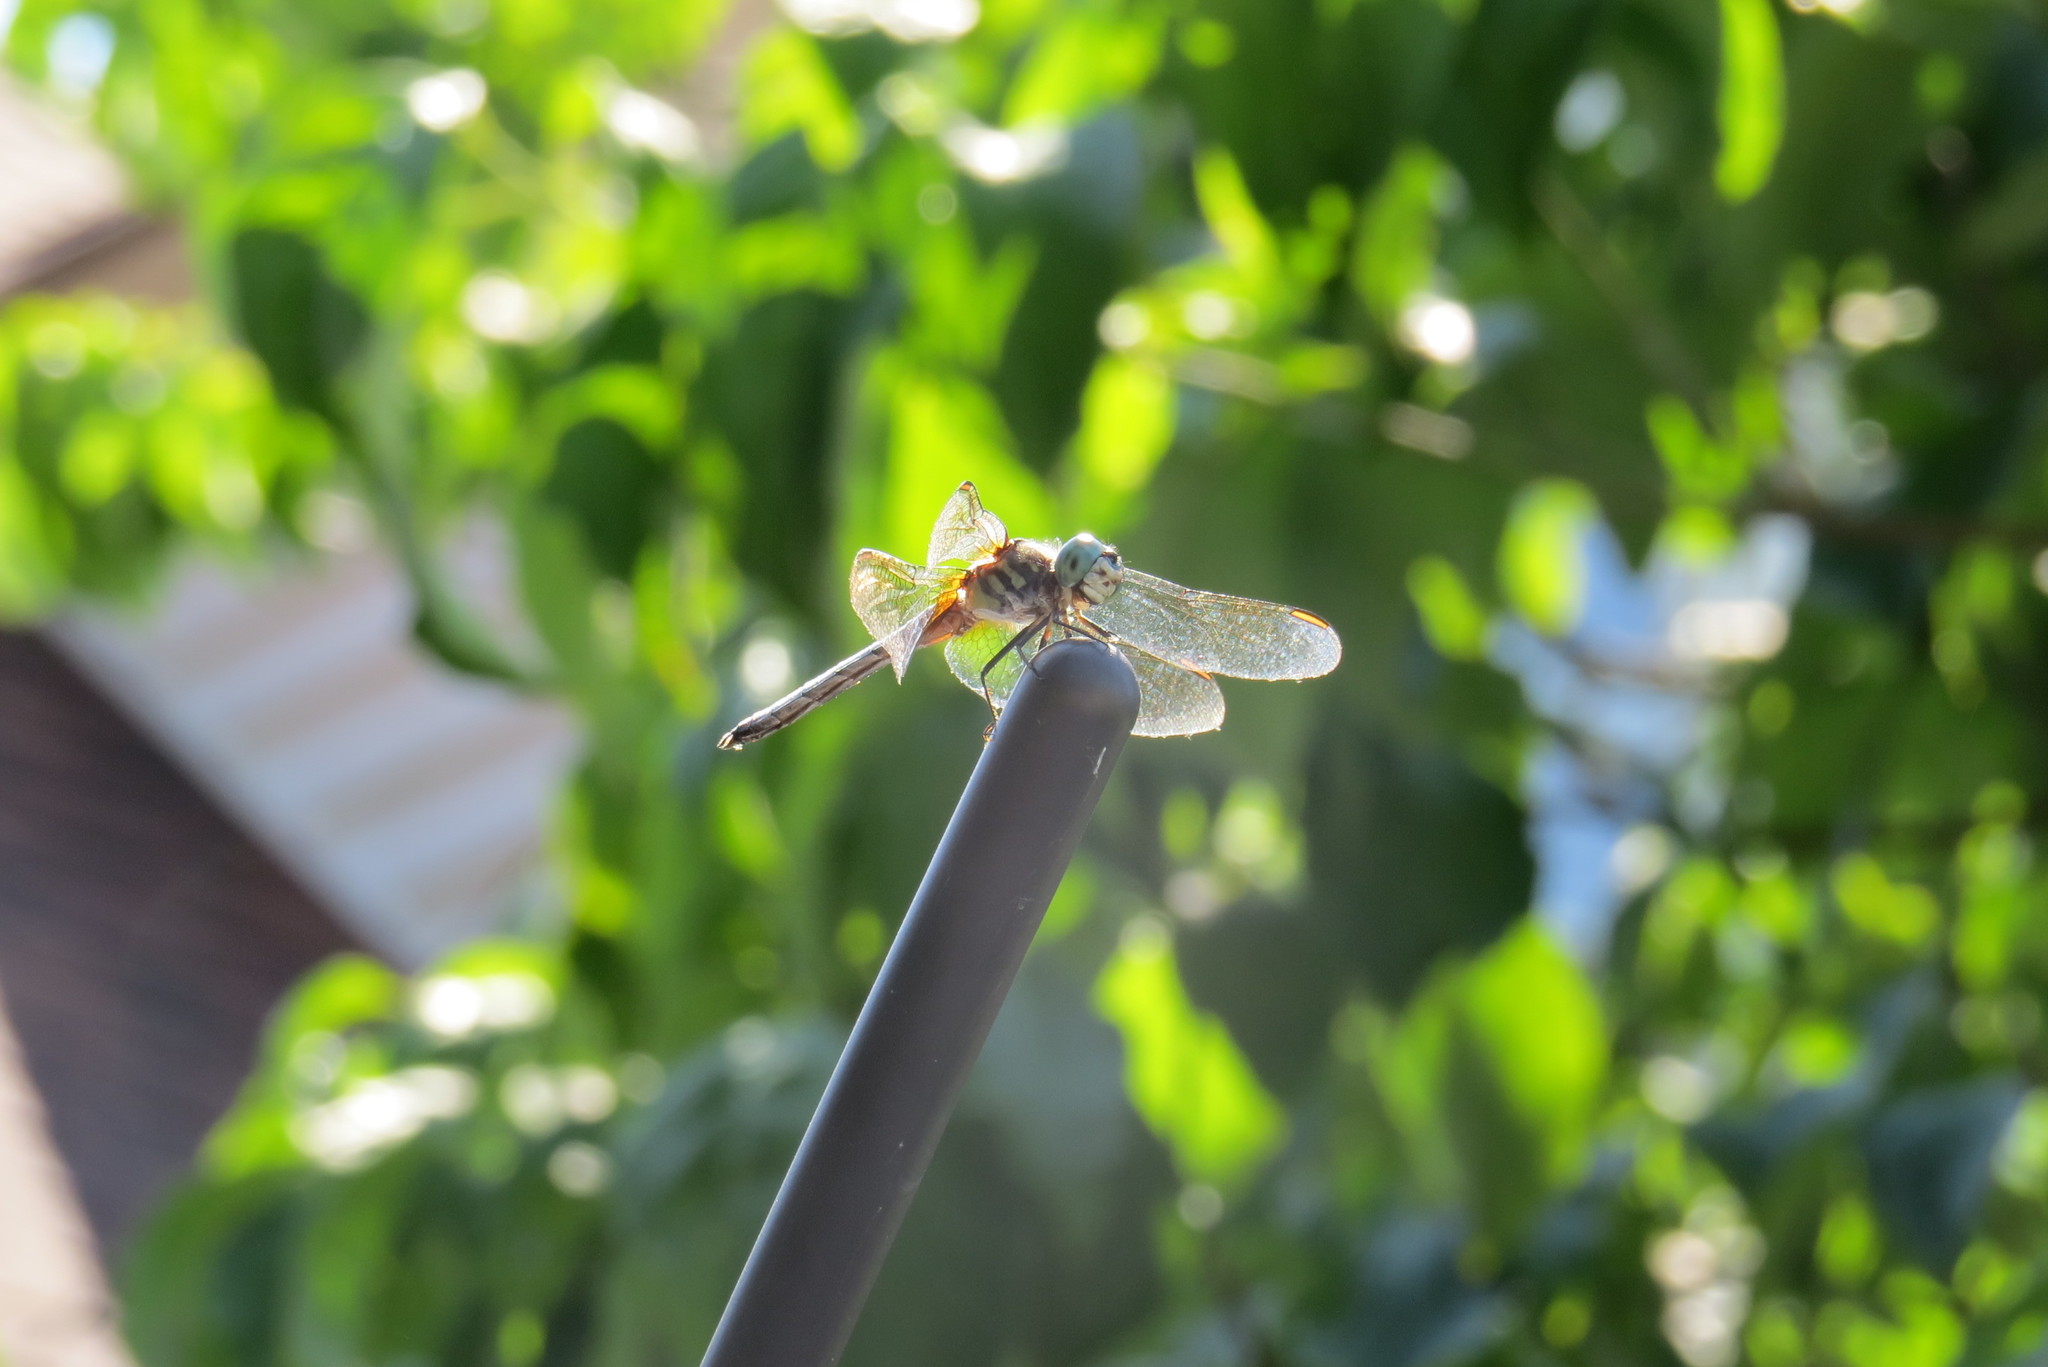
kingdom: Animalia
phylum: Arthropoda
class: Insecta
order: Odonata
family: Libellulidae
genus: Pachydiplax
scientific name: Pachydiplax longipennis
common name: Blue dasher
